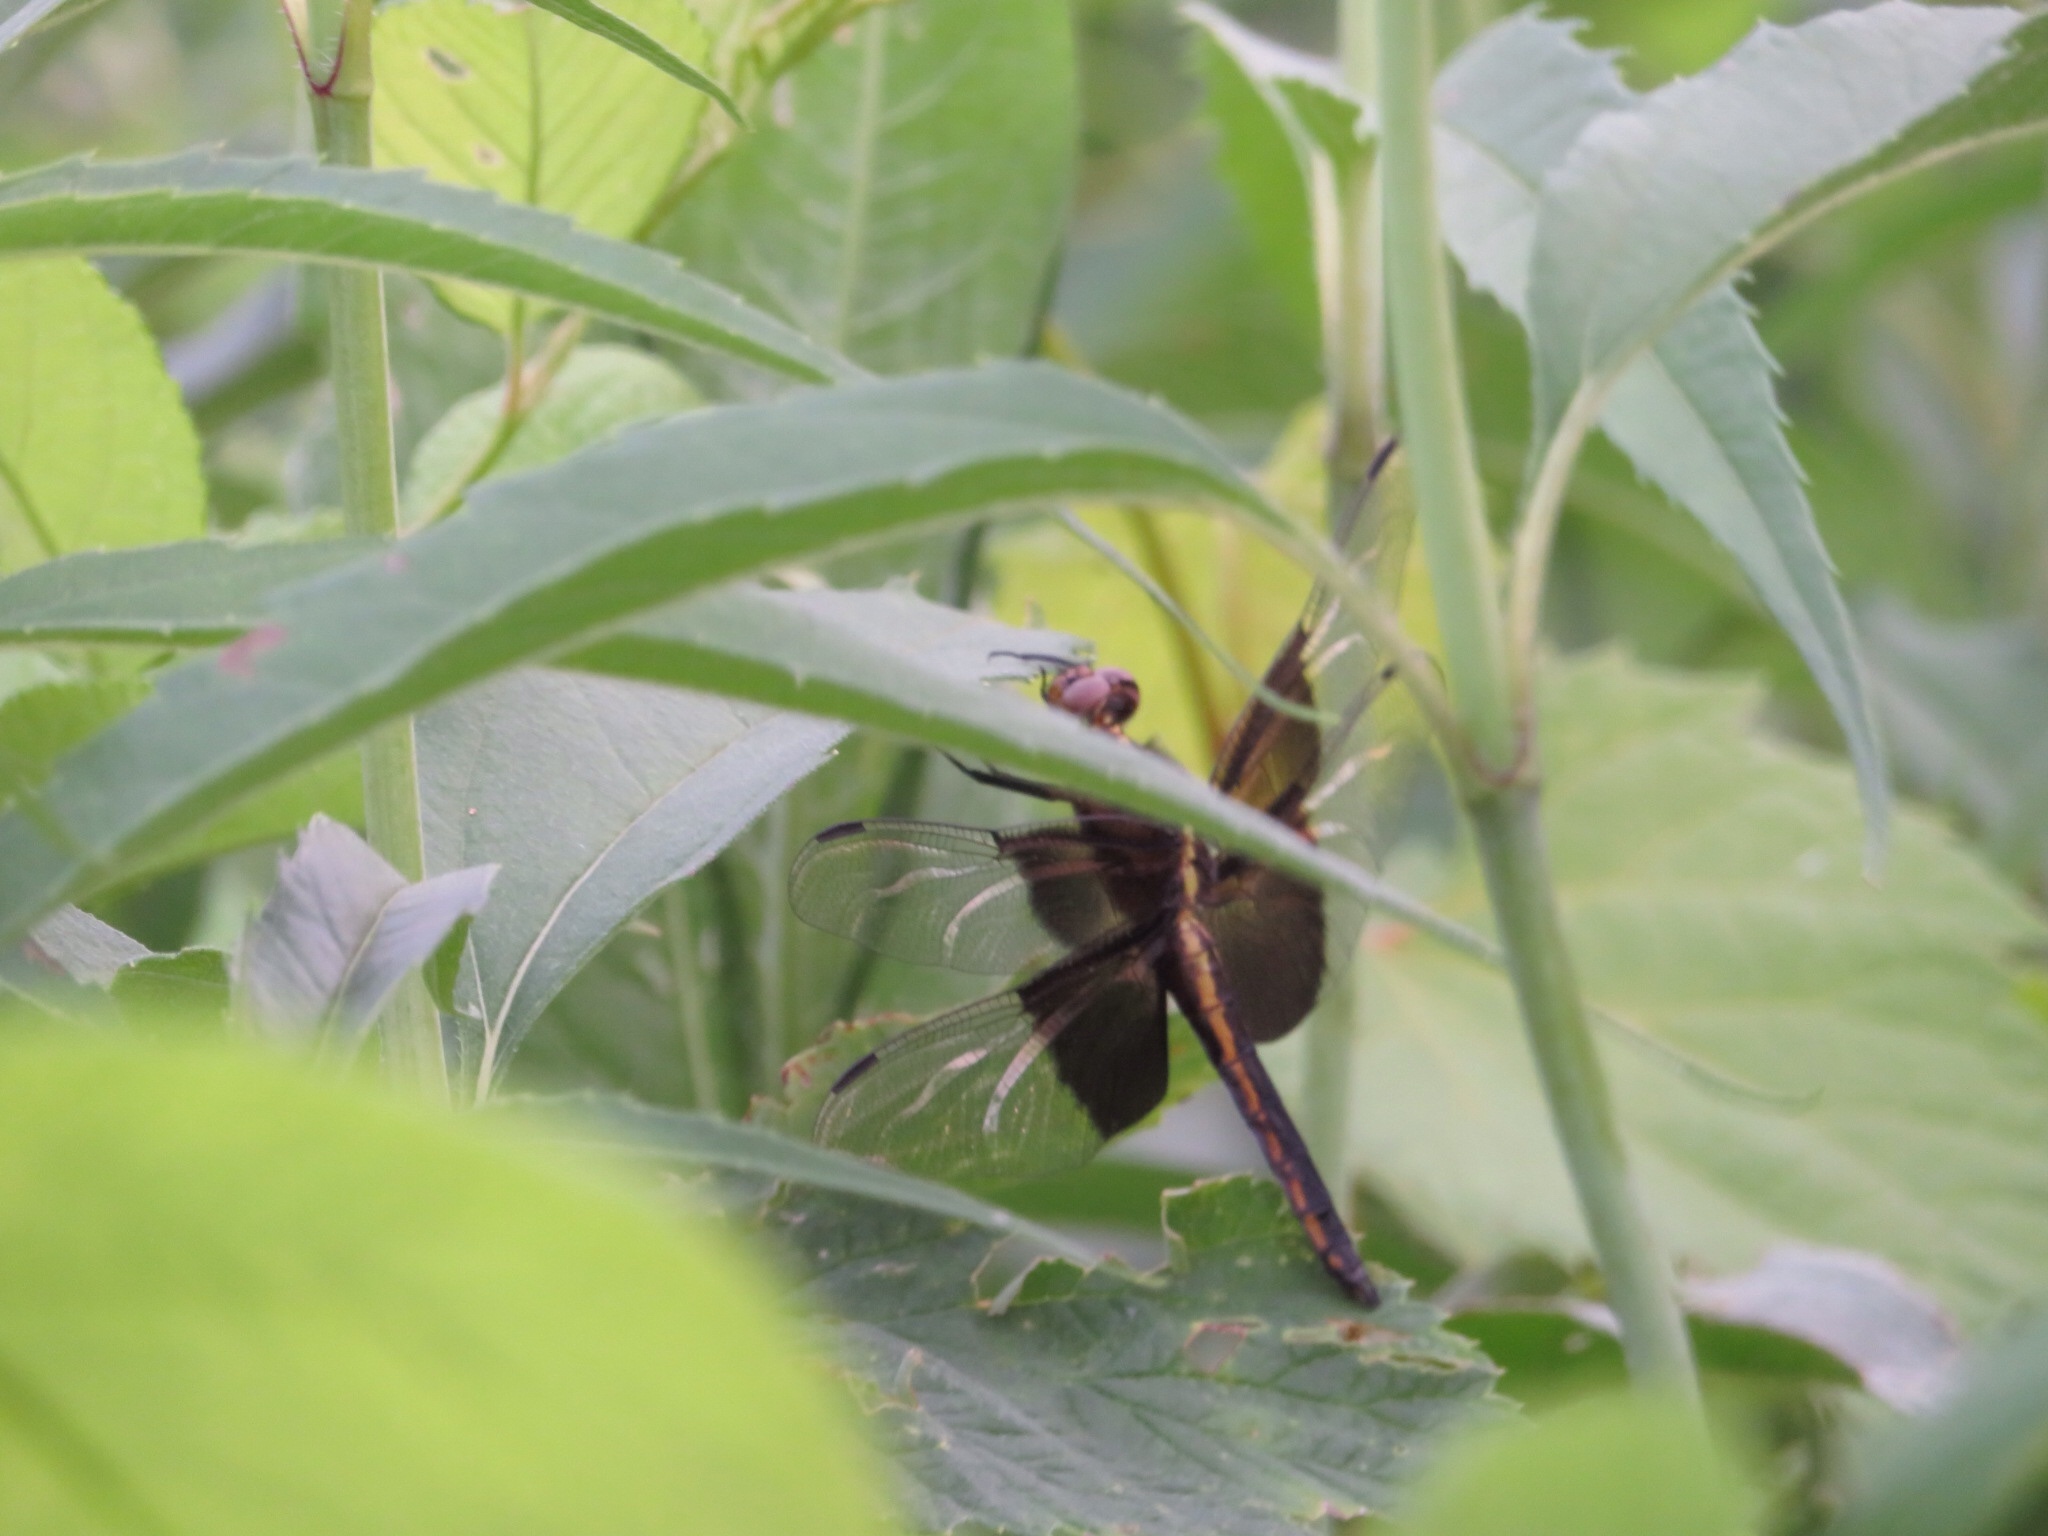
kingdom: Animalia
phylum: Arthropoda
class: Insecta
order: Odonata
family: Libellulidae
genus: Libellula
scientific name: Libellula luctuosa
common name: Widow skimmer
